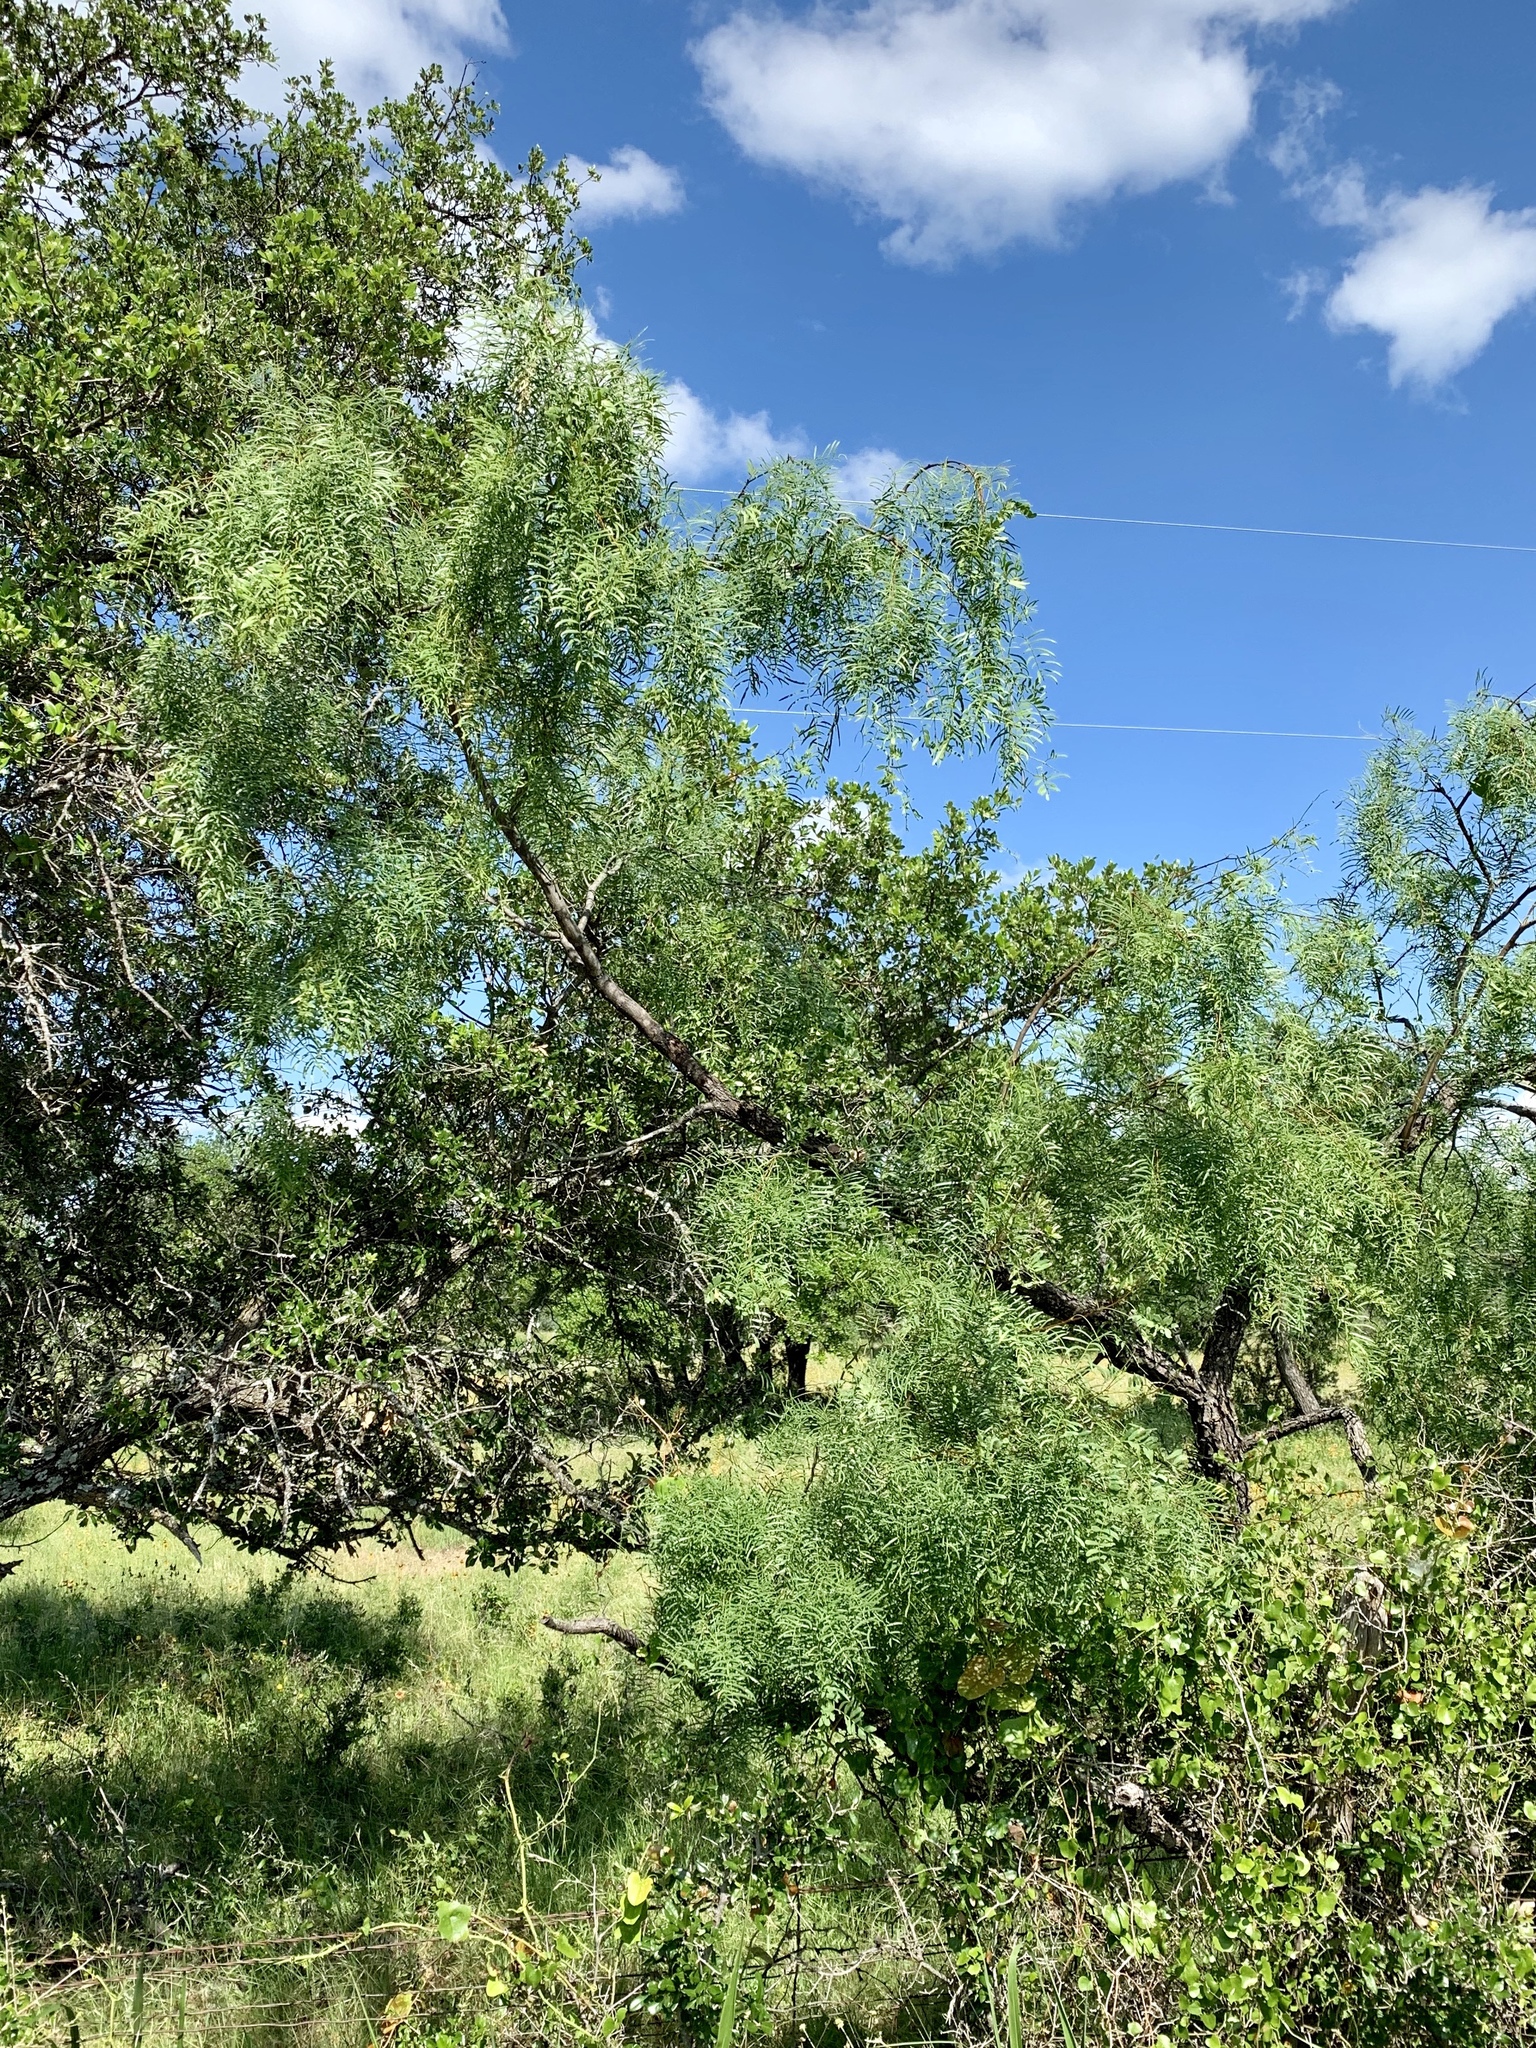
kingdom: Plantae
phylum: Tracheophyta
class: Magnoliopsida
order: Fabales
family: Fabaceae
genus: Prosopis
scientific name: Prosopis glandulosa
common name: Honey mesquite
